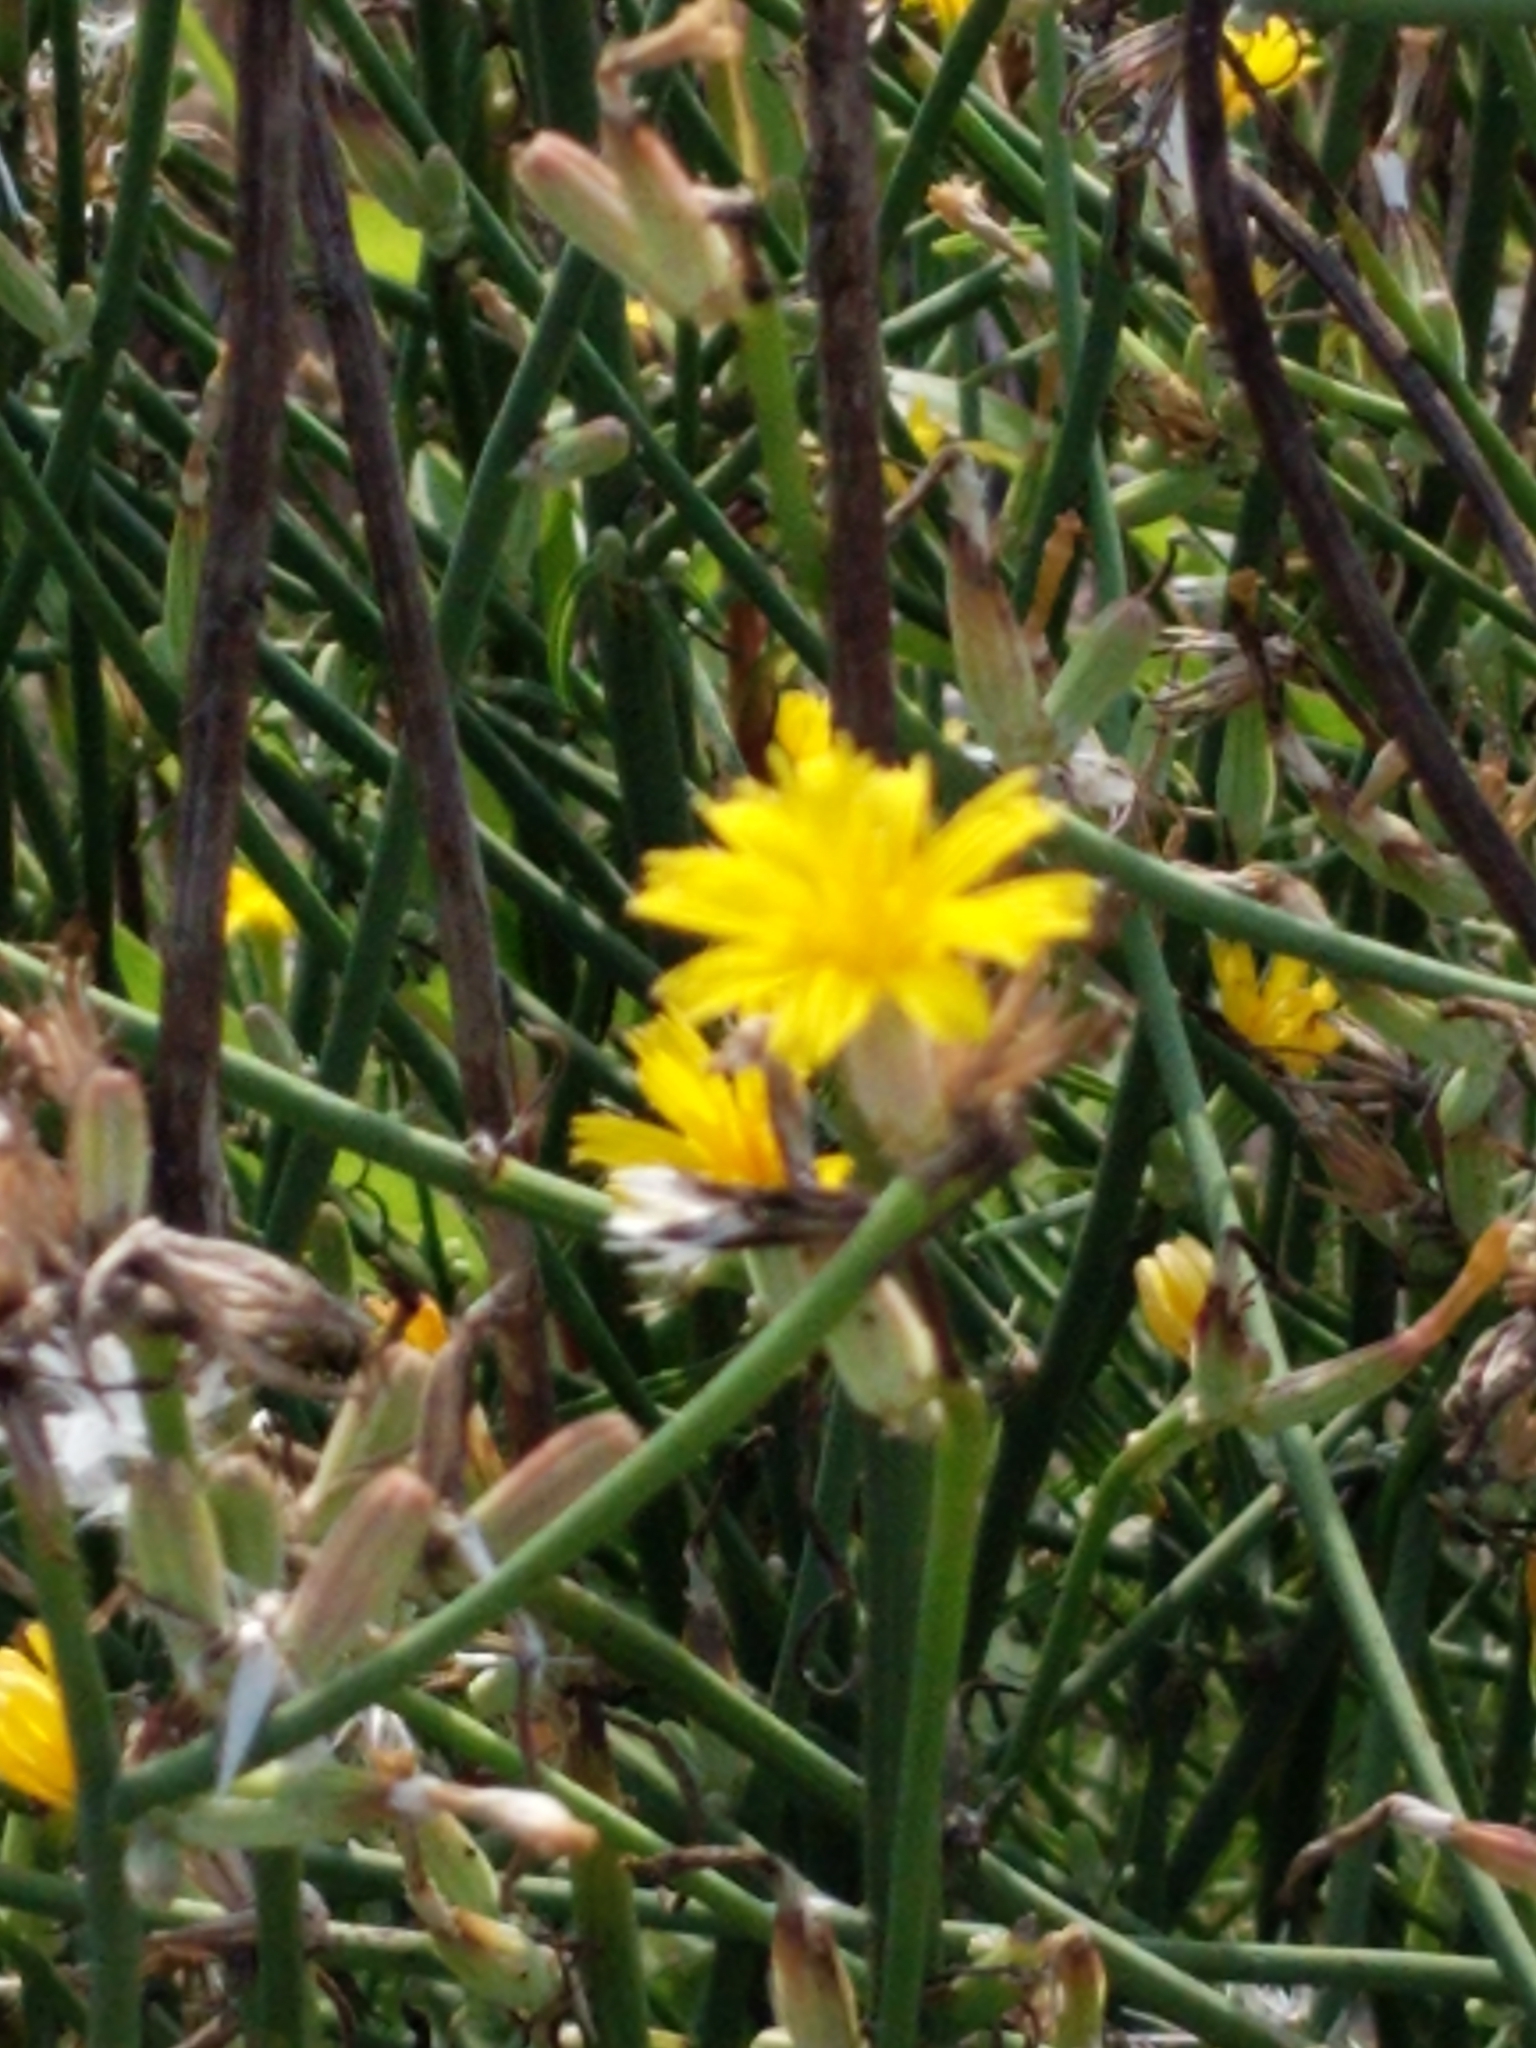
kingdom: Plantae
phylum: Tracheophyta
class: Magnoliopsida
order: Asterales
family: Asteraceae
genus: Chondrilla
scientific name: Chondrilla juncea
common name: Skeleton weed
